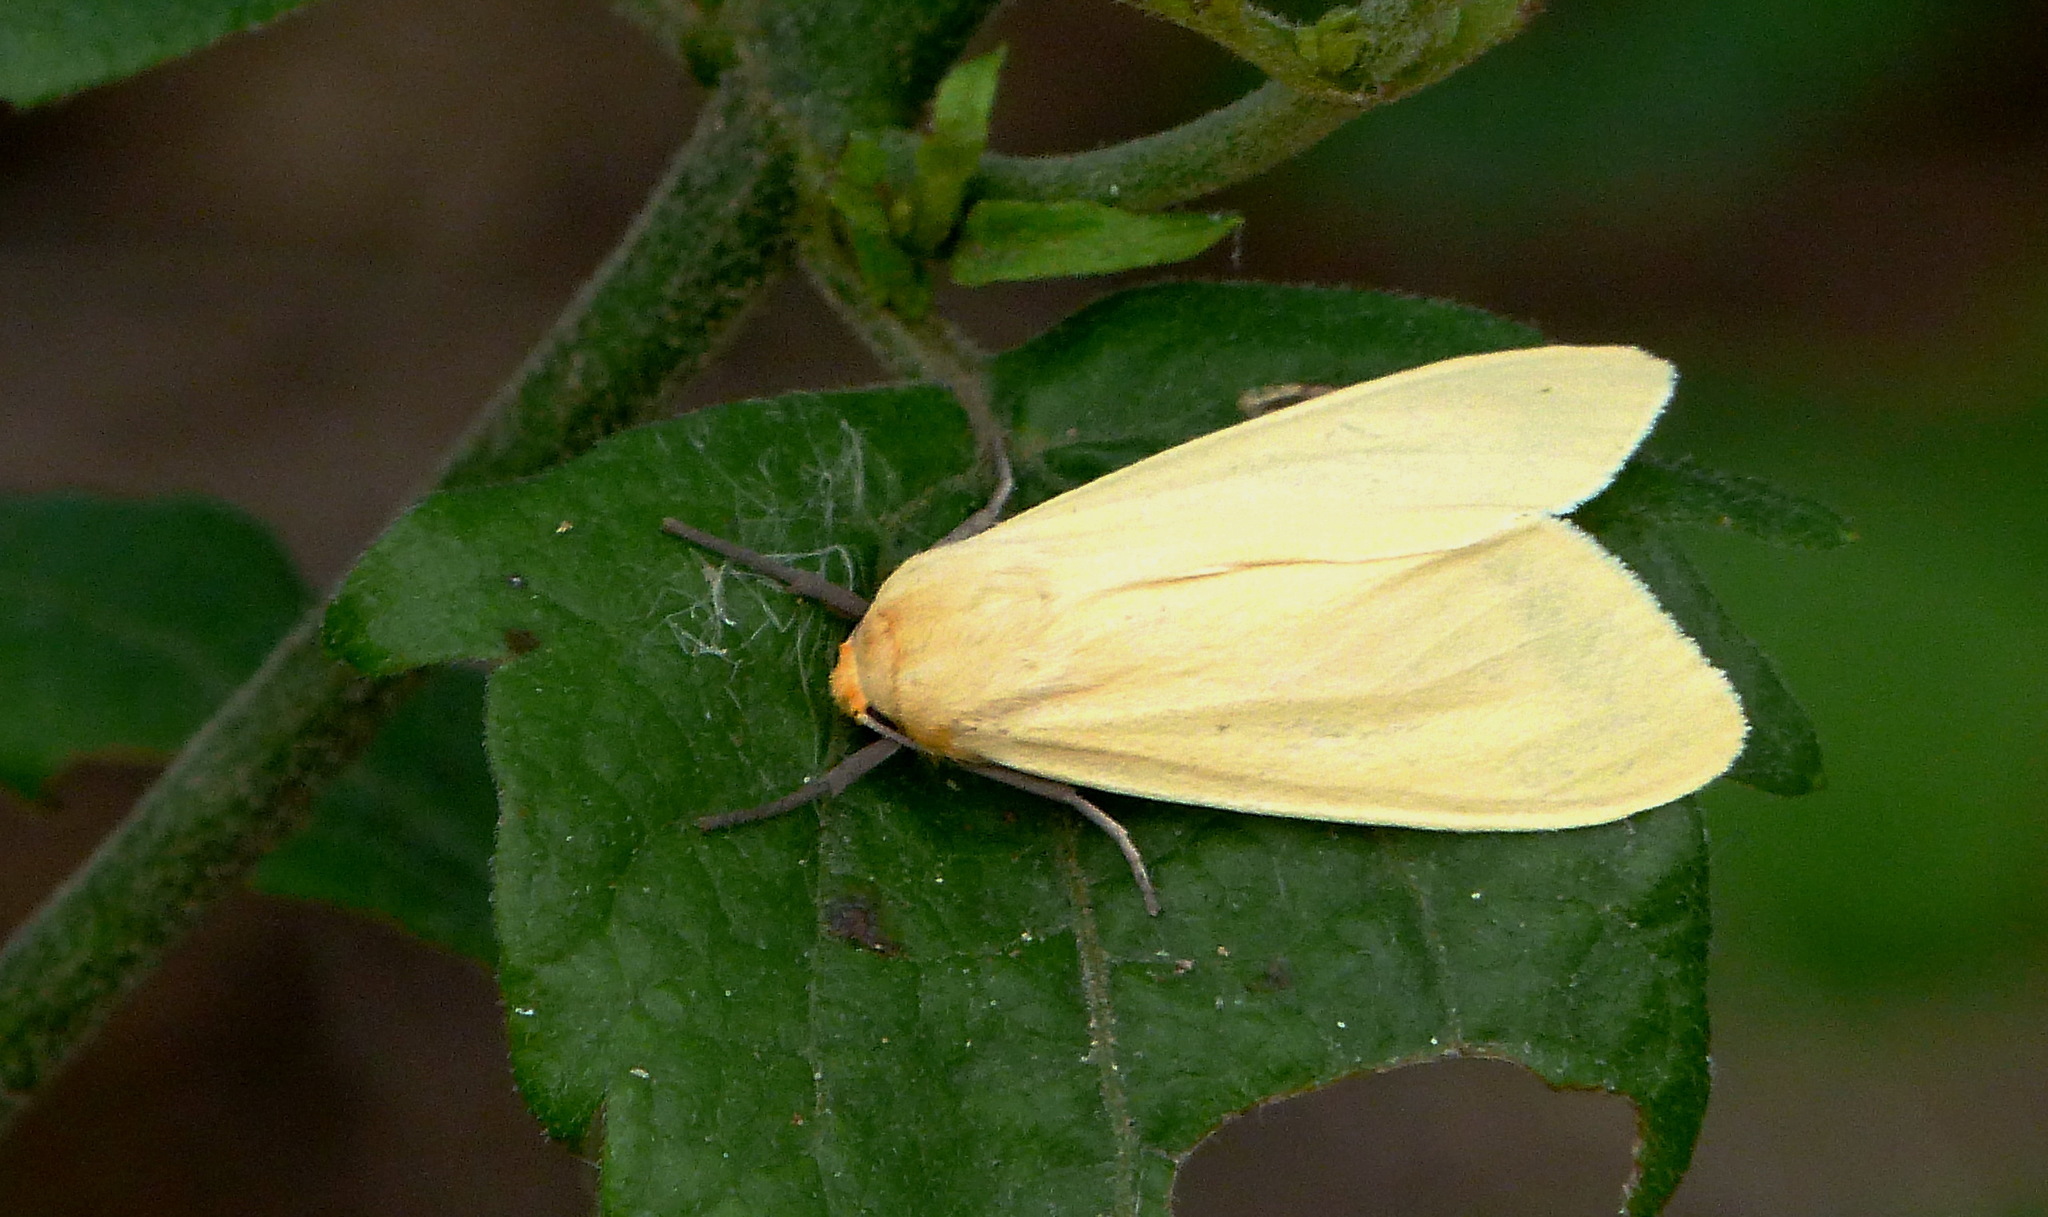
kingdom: Animalia
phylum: Arthropoda
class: Insecta
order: Lepidoptera
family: Erebidae
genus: Pareuchaetes
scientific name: Pareuchaetes insulata
